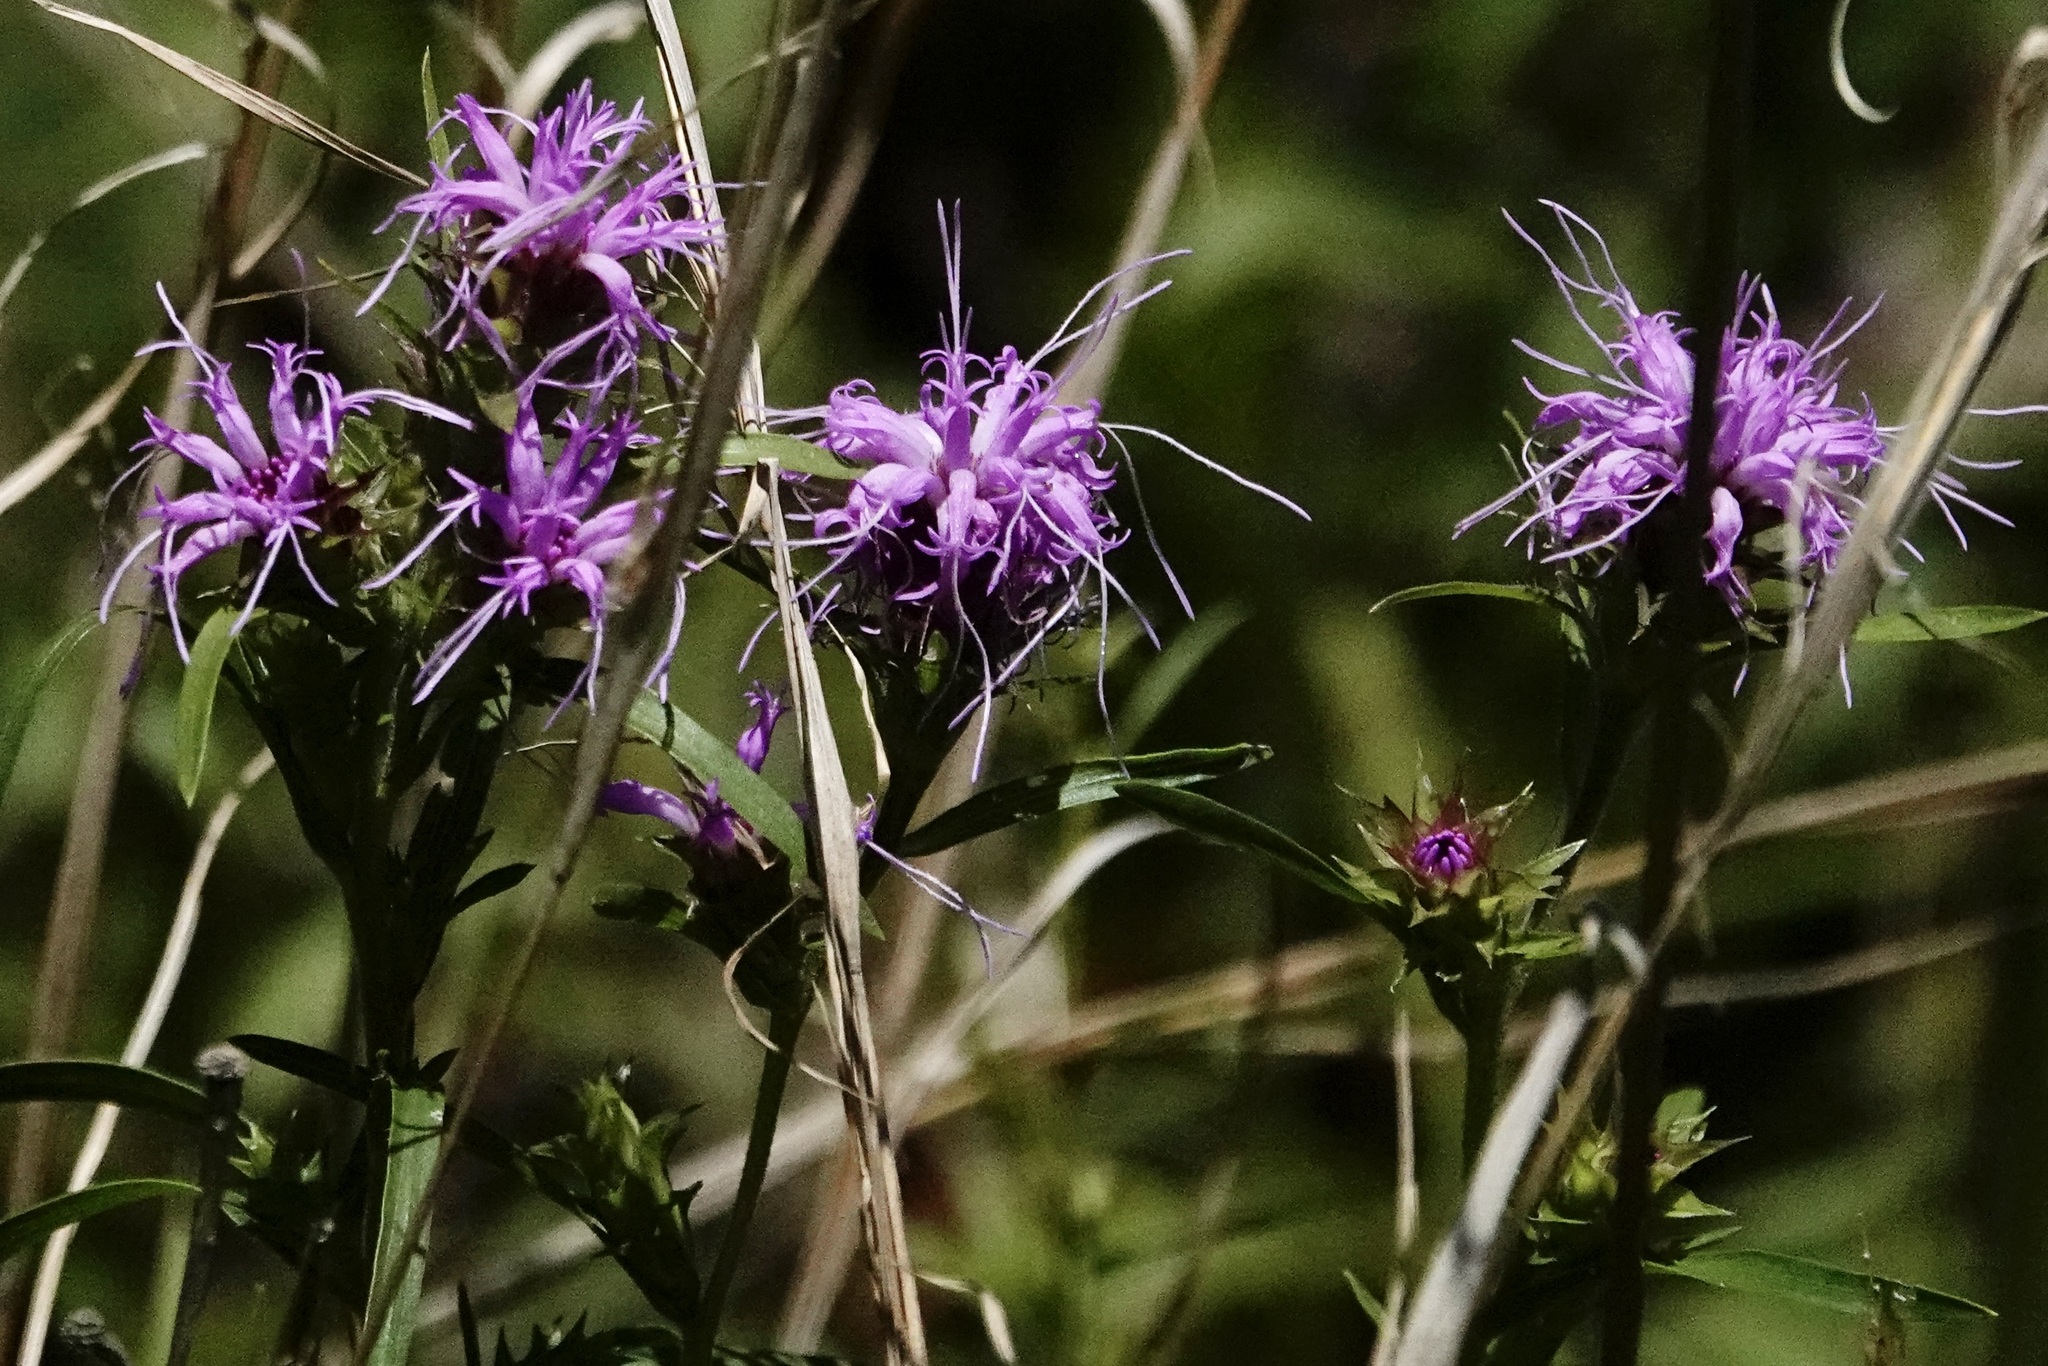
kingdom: Plantae
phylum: Tracheophyta
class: Magnoliopsida
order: Asterales
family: Asteraceae
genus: Liatris
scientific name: Liatris squarrosa
